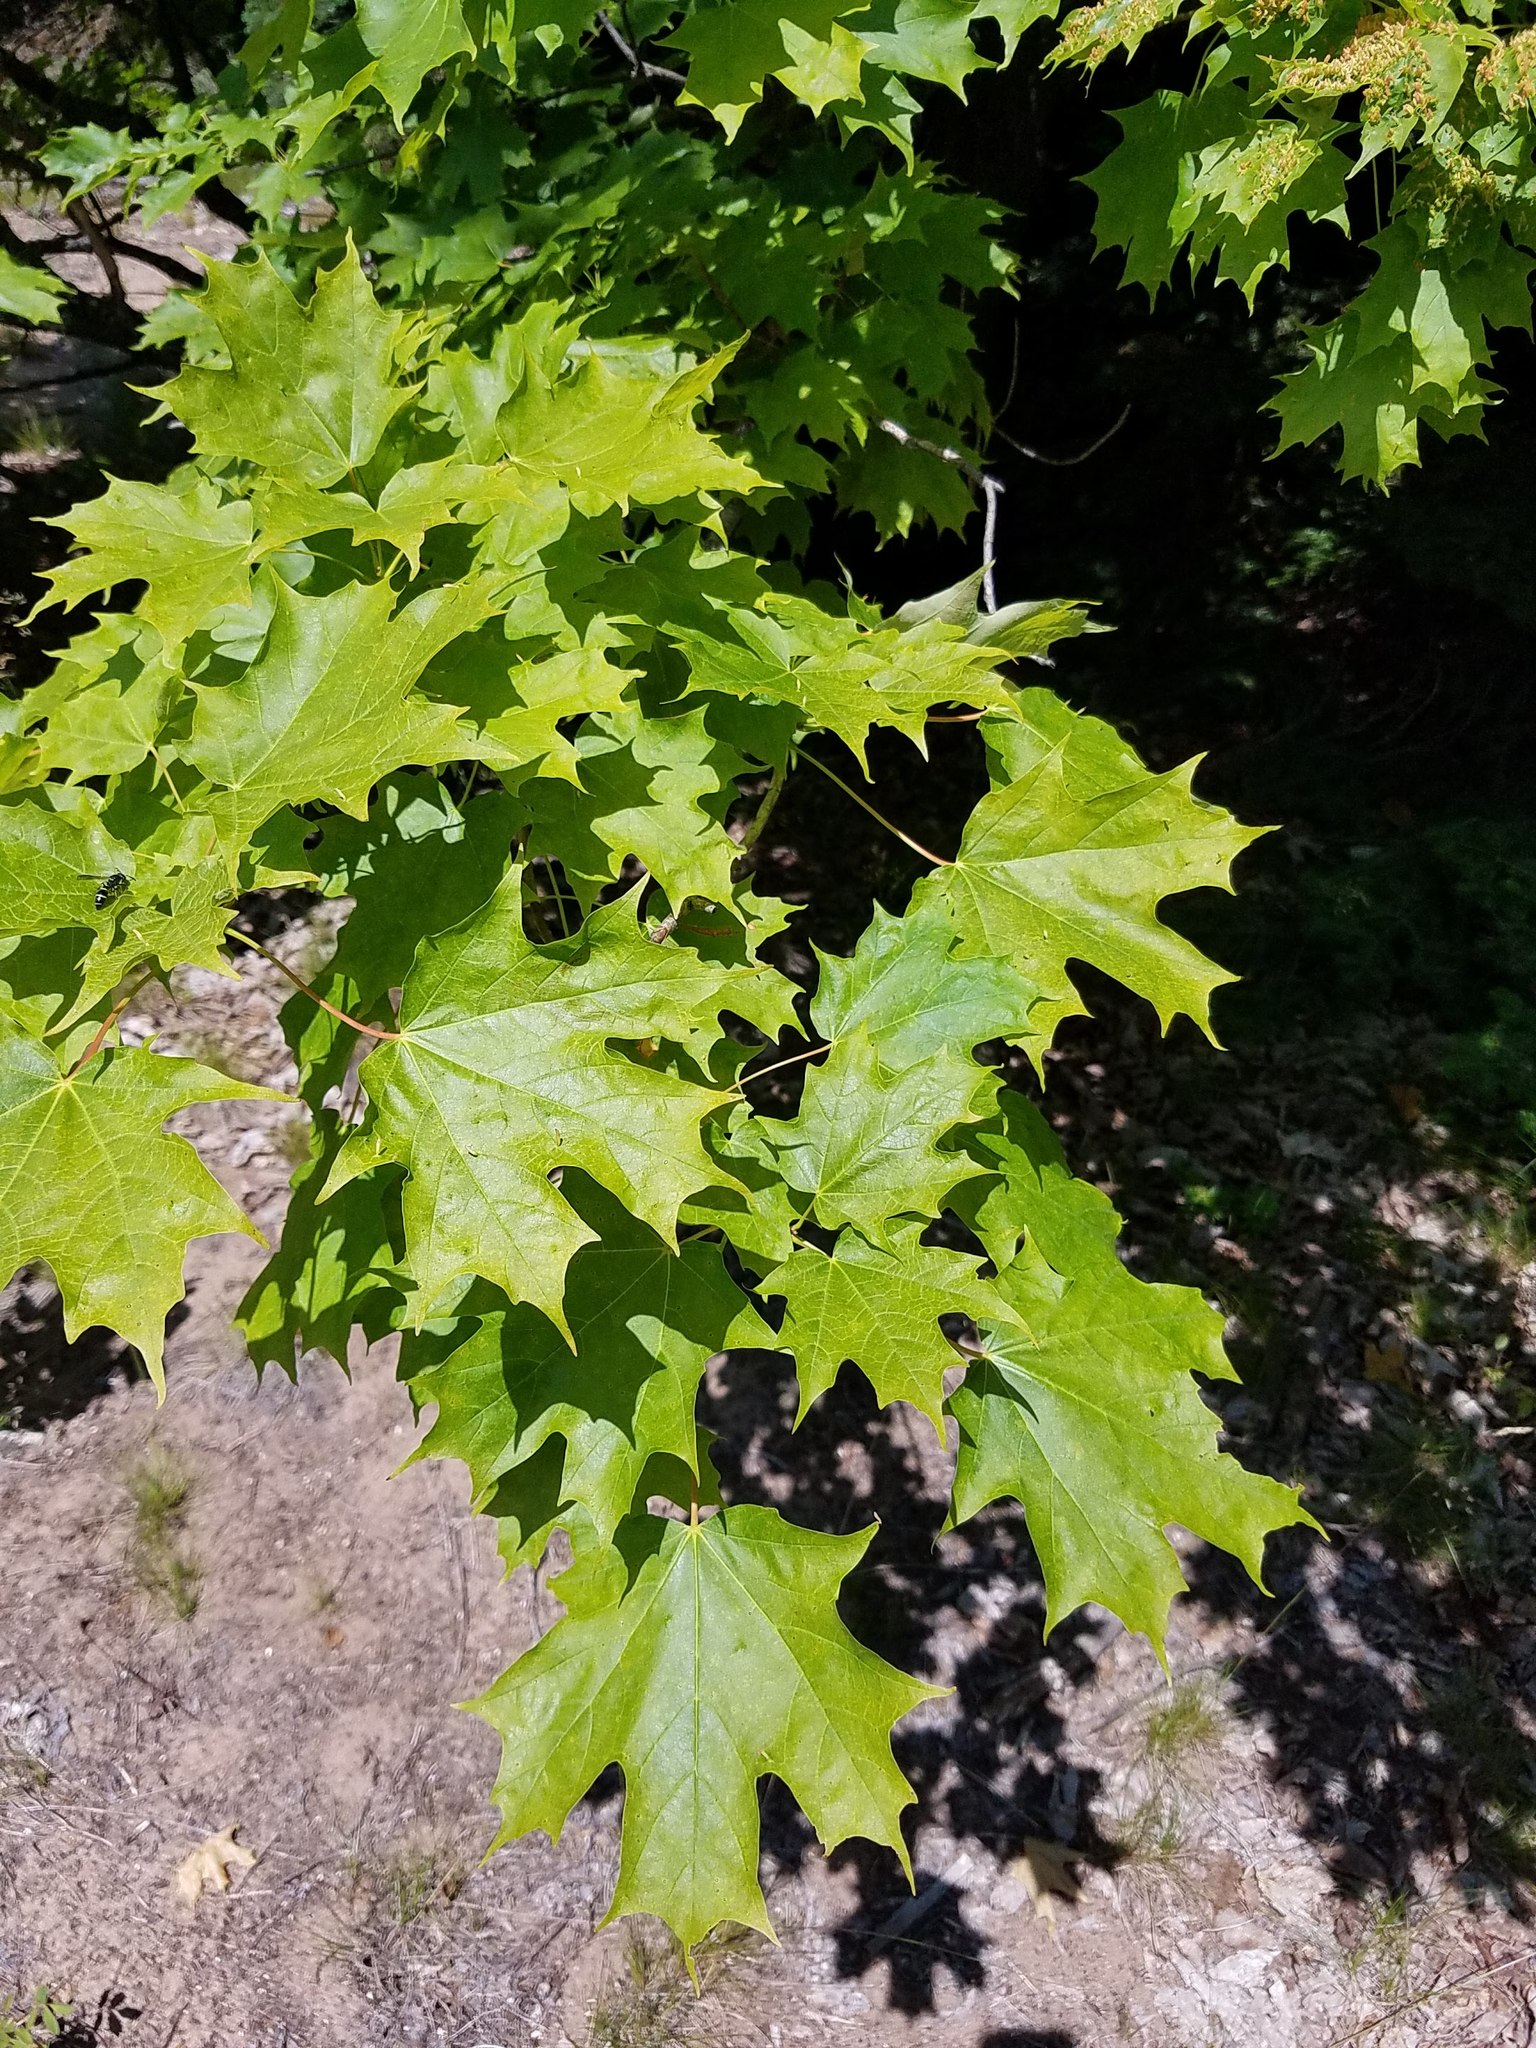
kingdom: Plantae
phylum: Tracheophyta
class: Magnoliopsida
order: Sapindales
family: Sapindaceae
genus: Acer
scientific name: Acer saccharum
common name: Sugar maple
